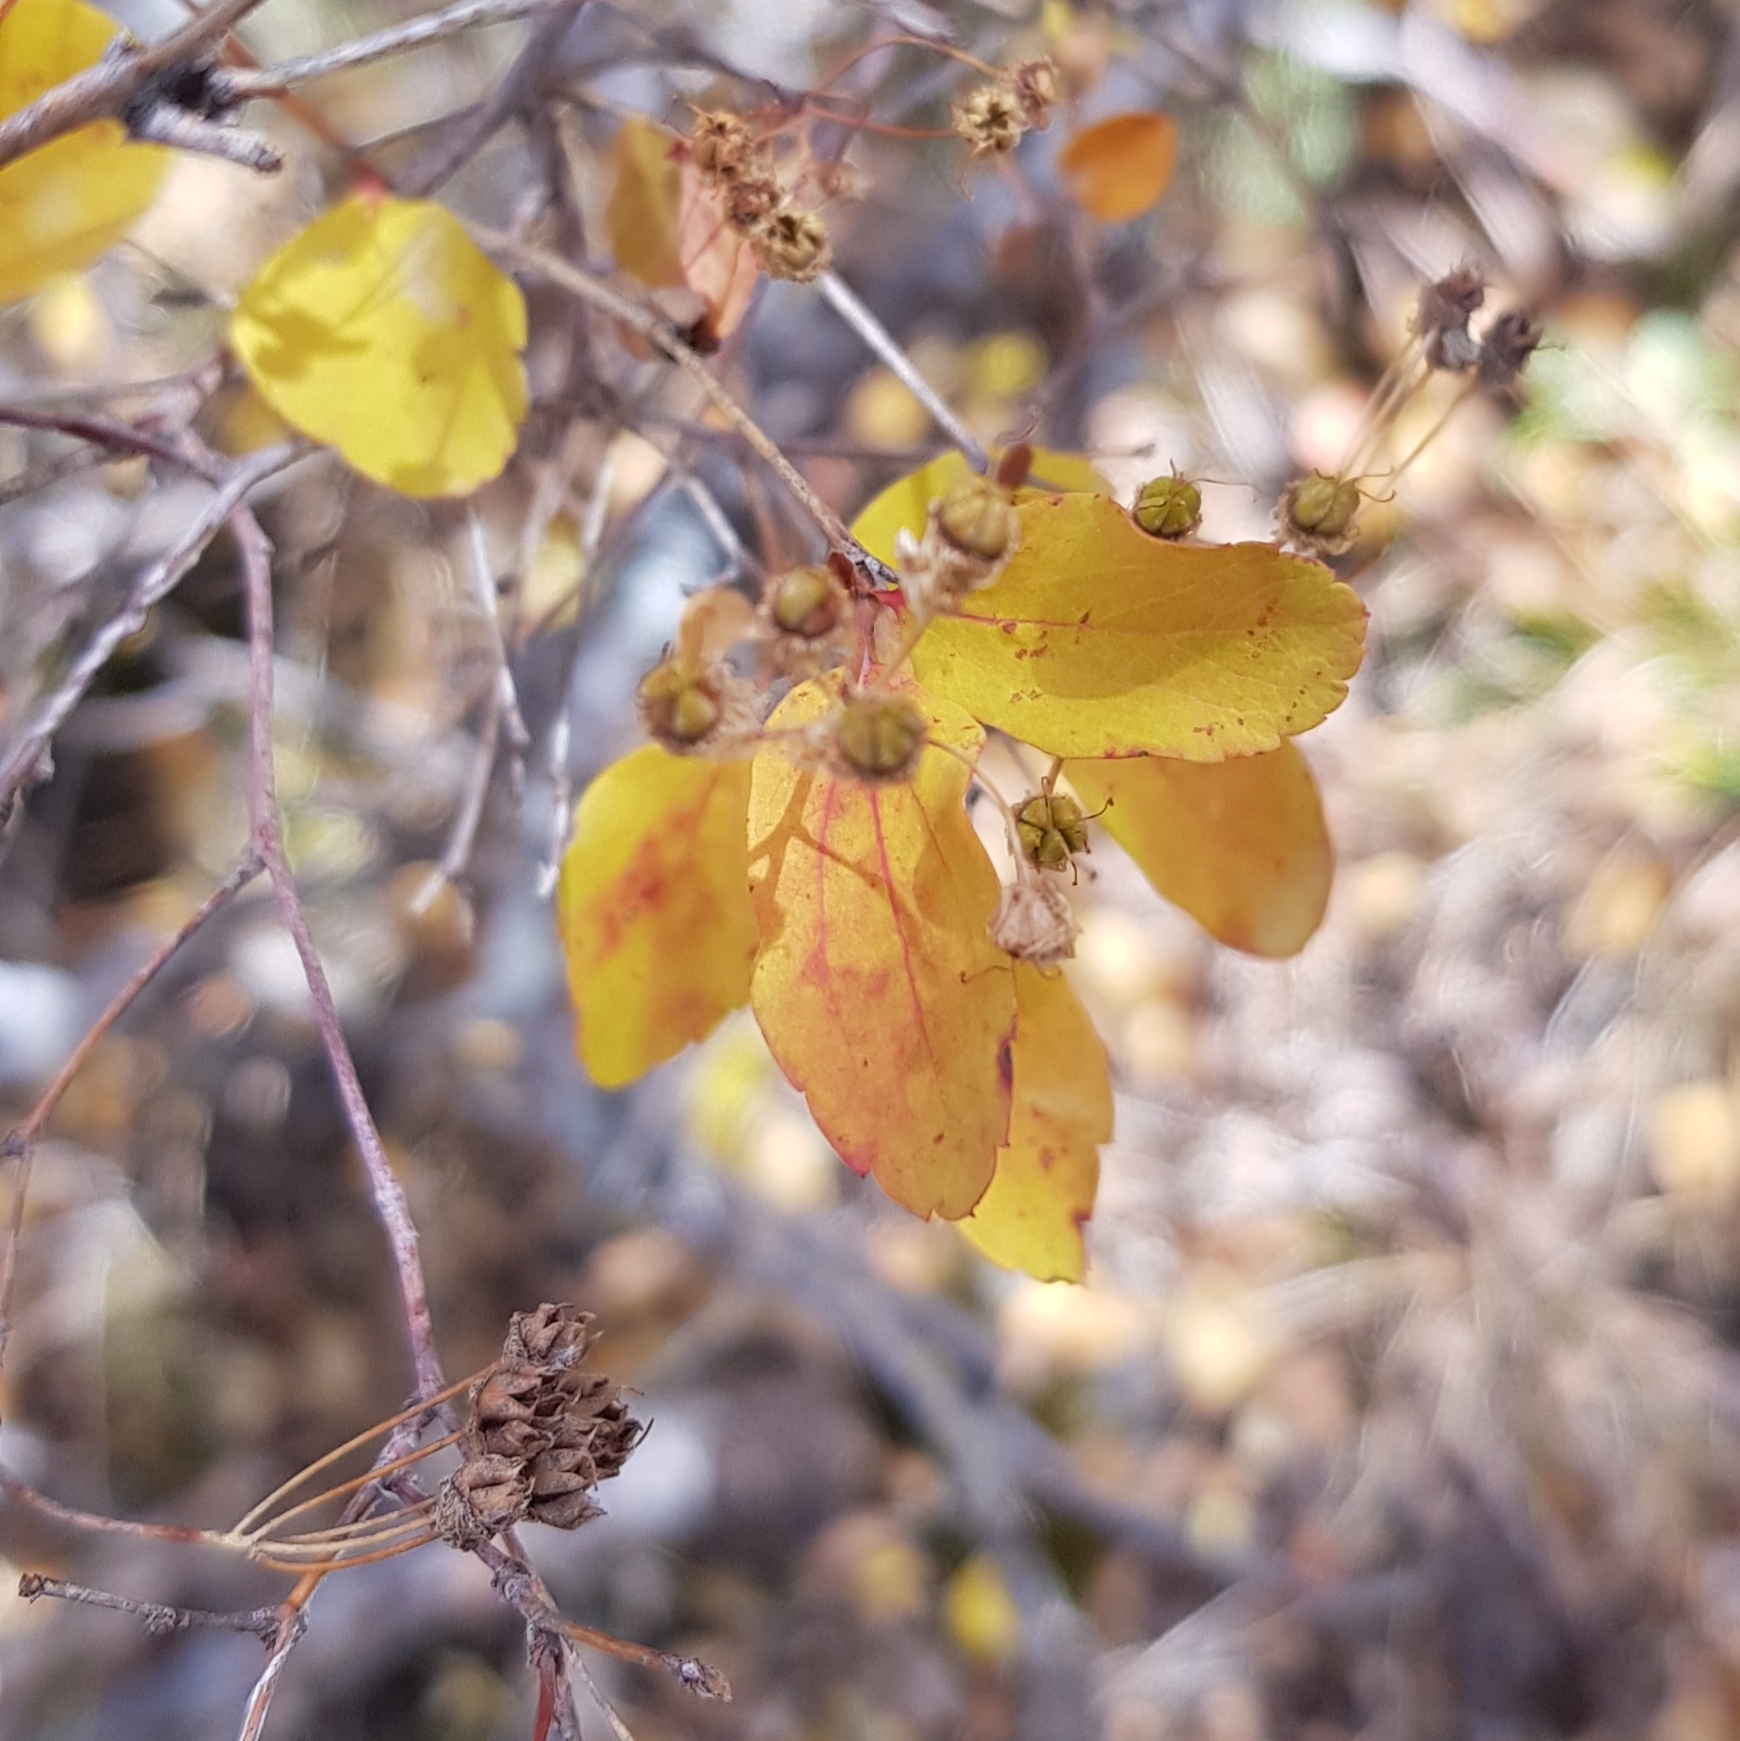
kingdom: Plantae
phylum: Tracheophyta
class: Magnoliopsida
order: Rosales
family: Rosaceae
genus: Spiraea
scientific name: Spiraea media
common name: Russian spiraea
